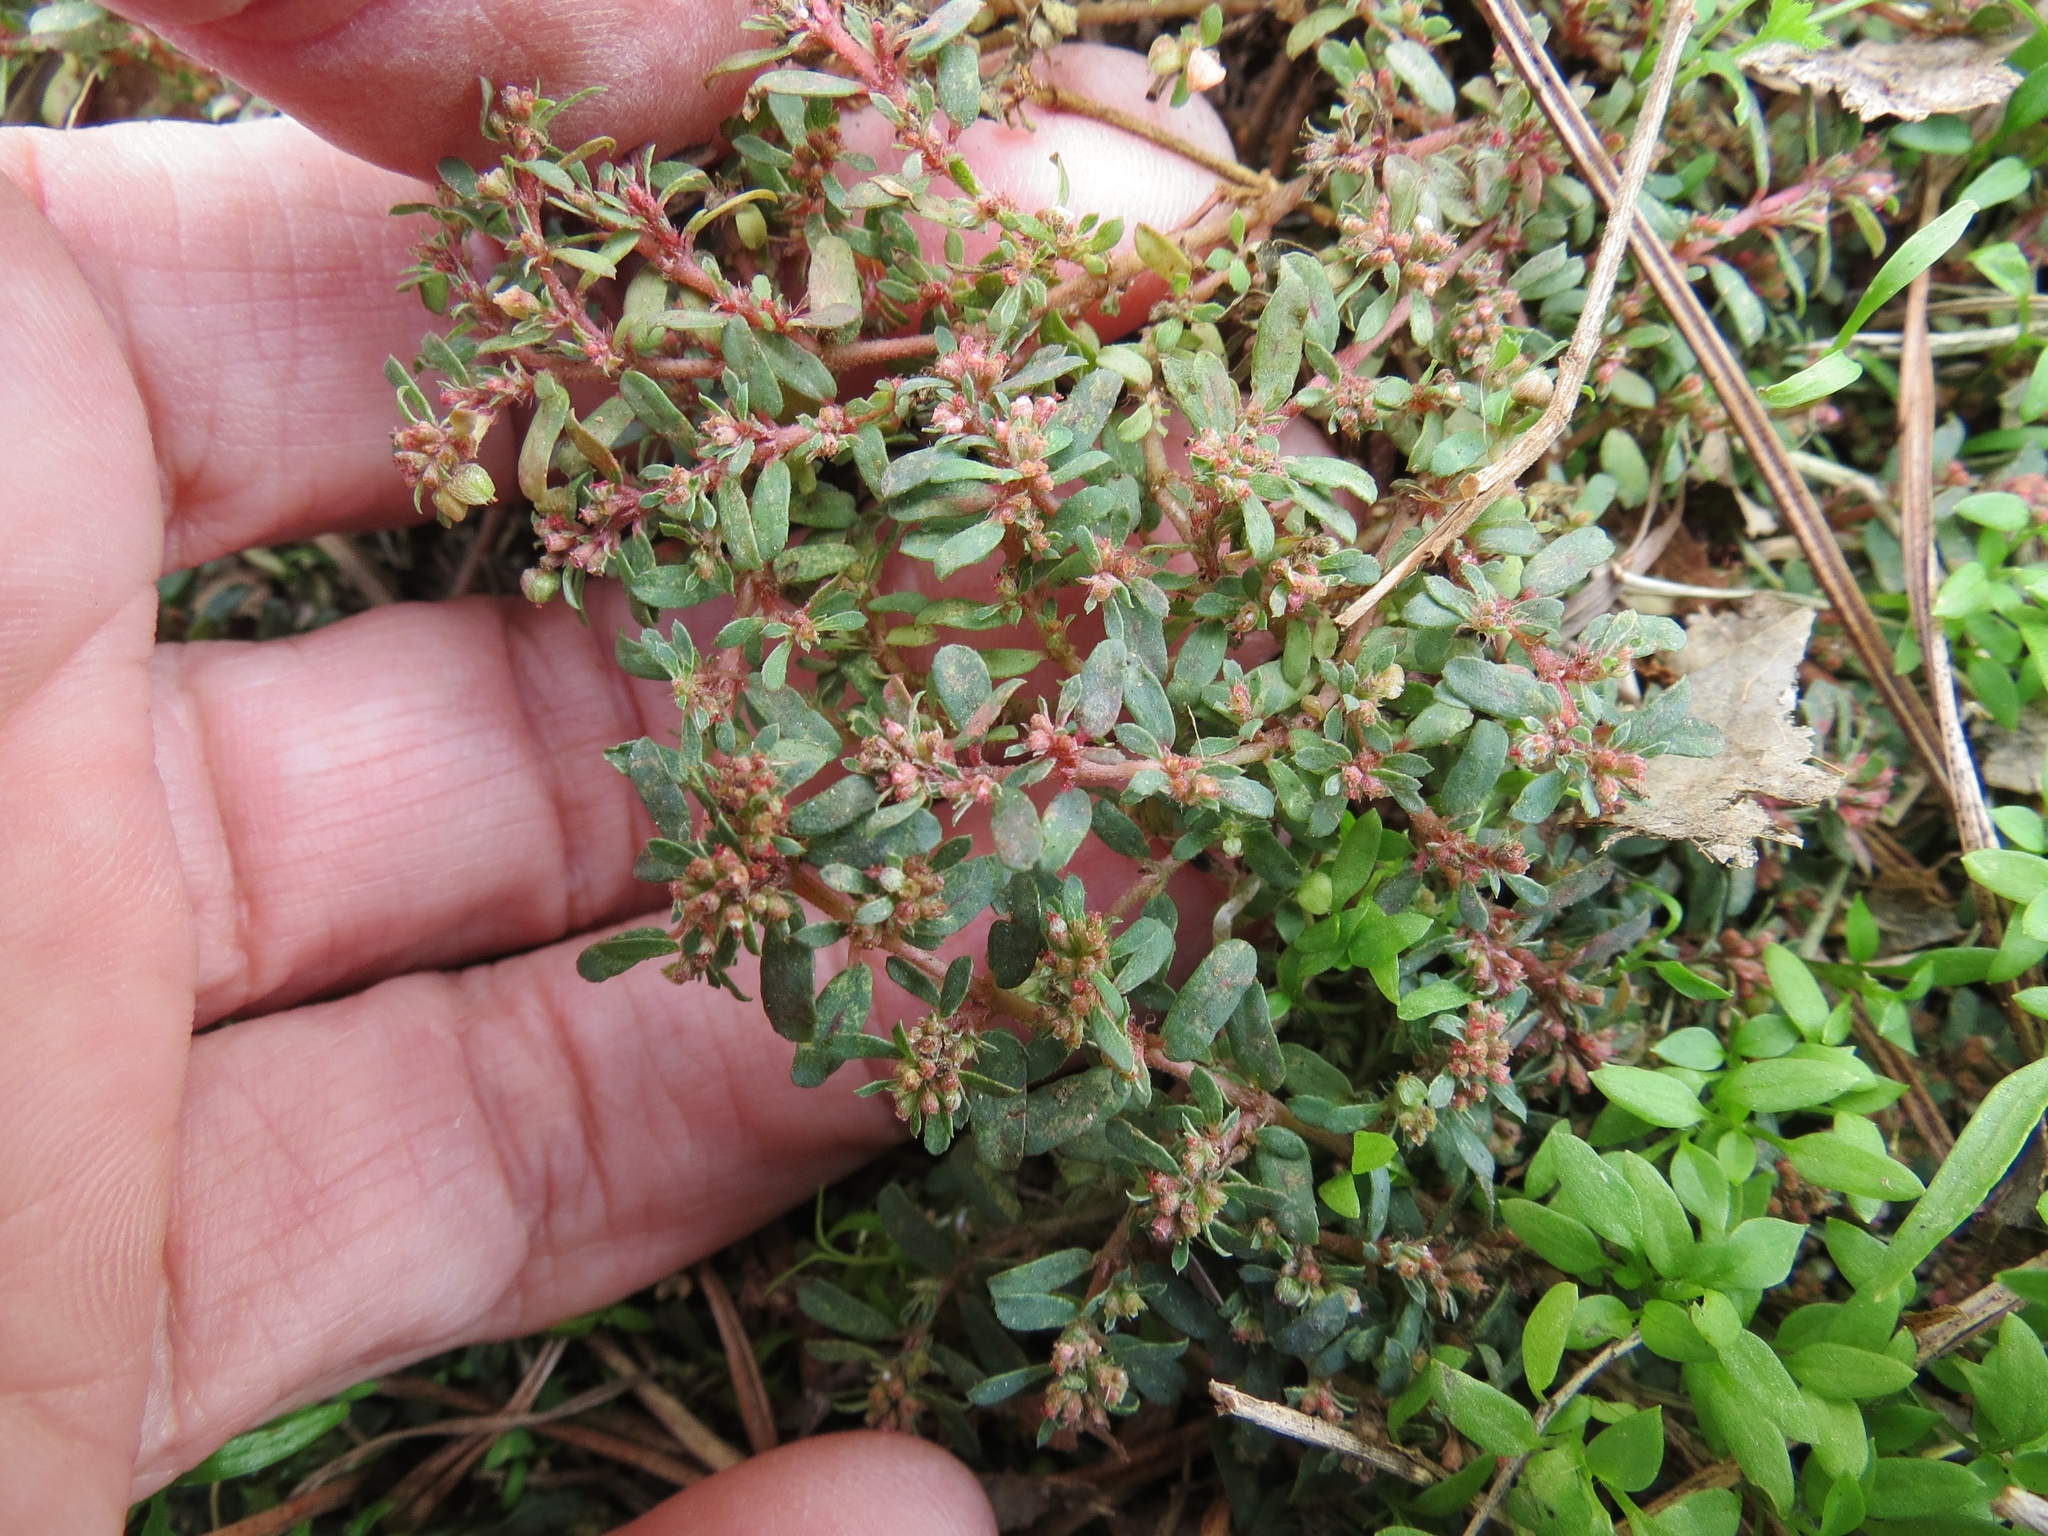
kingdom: Plantae
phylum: Tracheophyta
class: Magnoliopsida
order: Malpighiales
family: Euphorbiaceae
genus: Euphorbia
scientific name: Euphorbia maculata
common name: Spotted spurge
